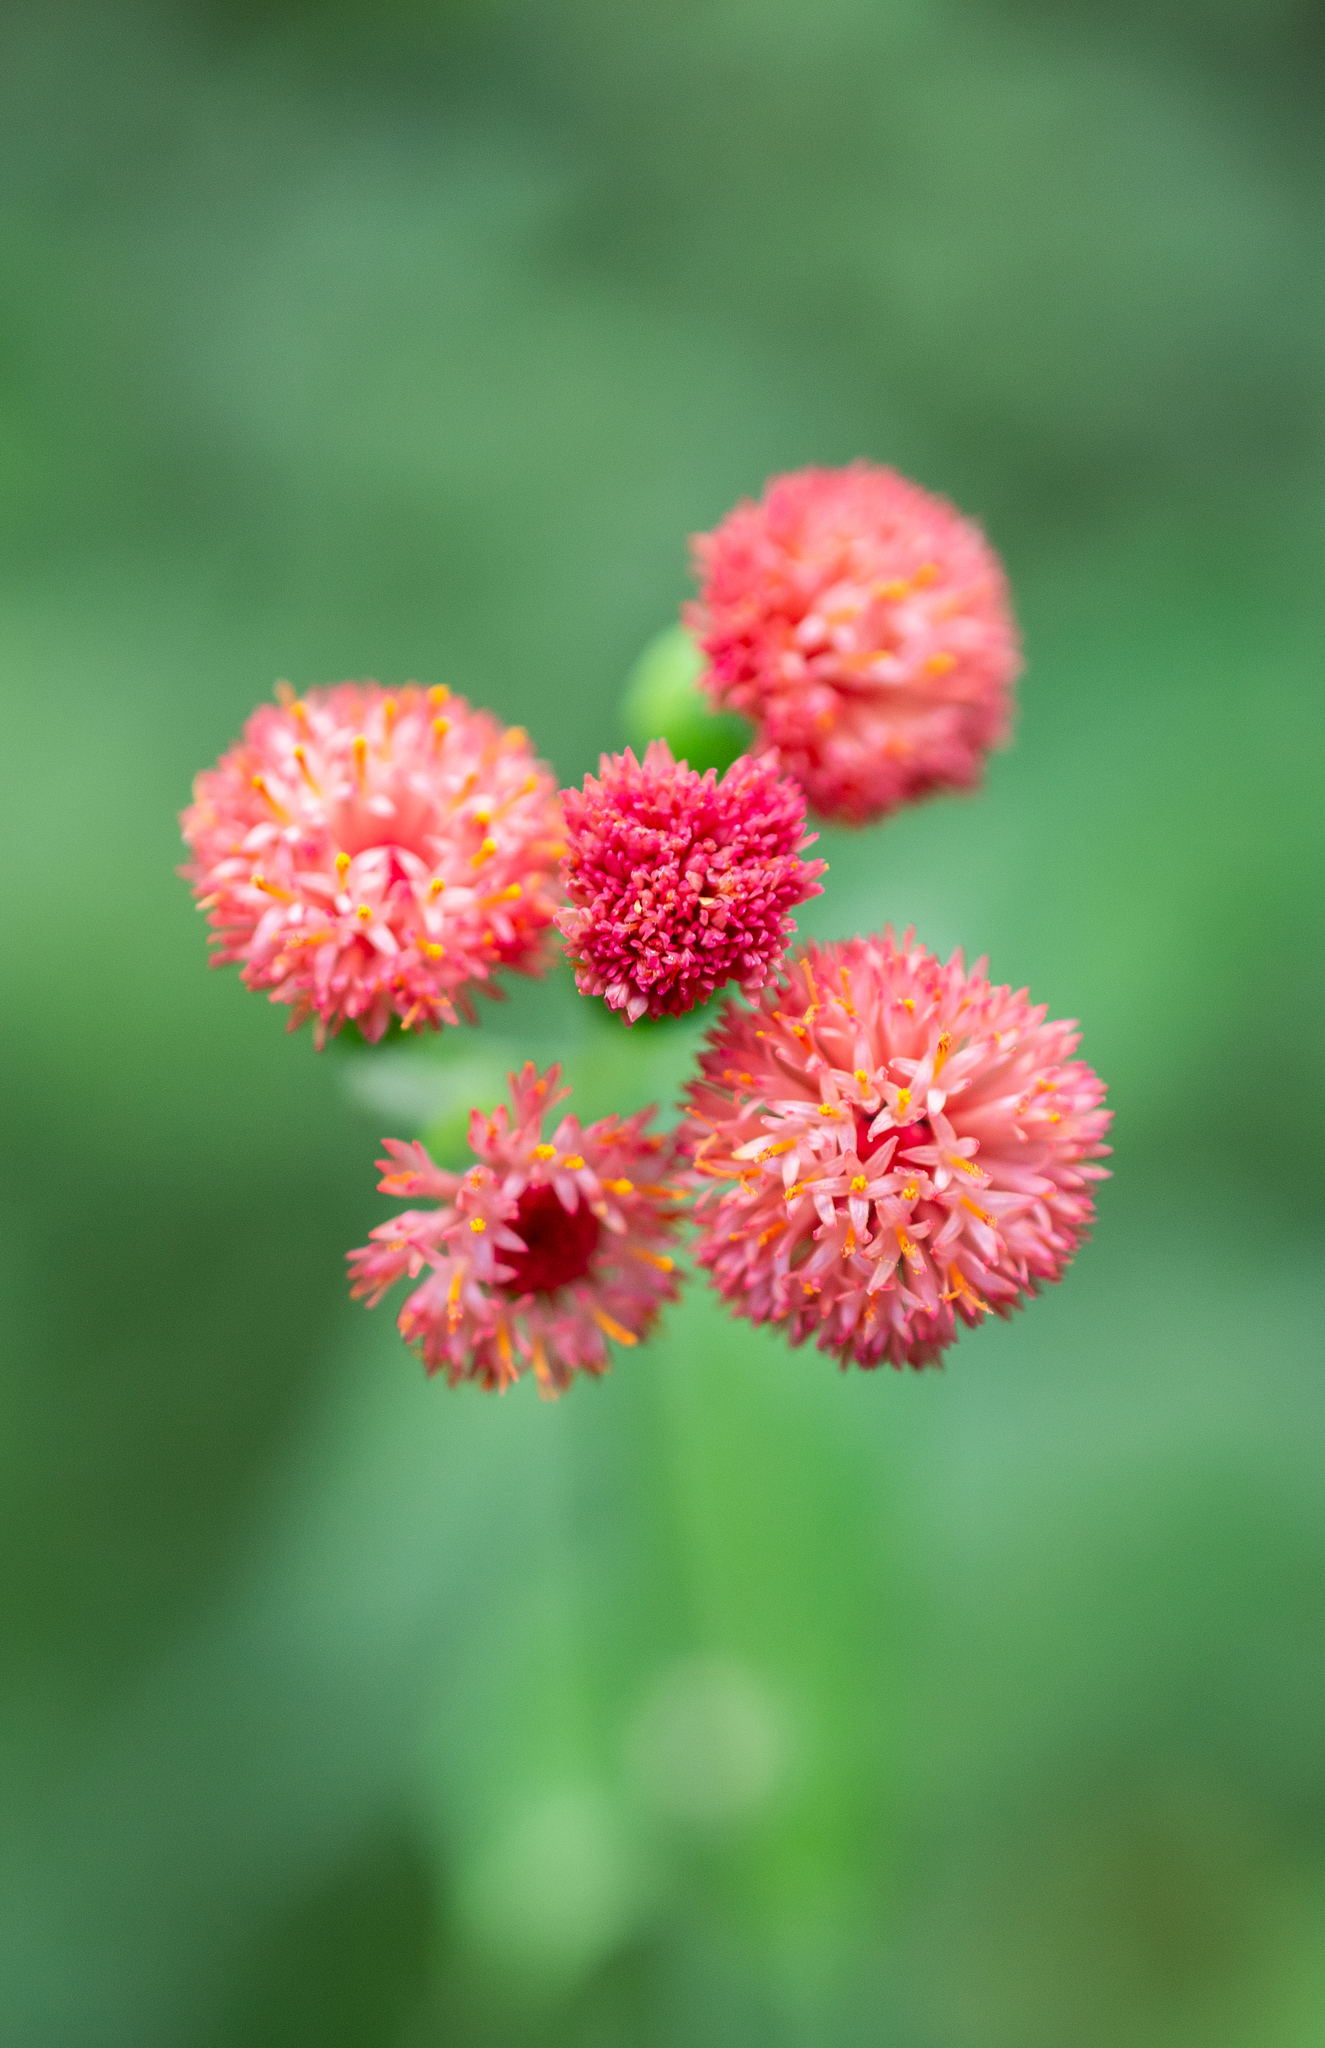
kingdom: Plantae
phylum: Tracheophyta
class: Magnoliopsida
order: Asterales
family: Asteraceae
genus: Emilia
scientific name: Emilia fosbergii
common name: Florida tasselflower
